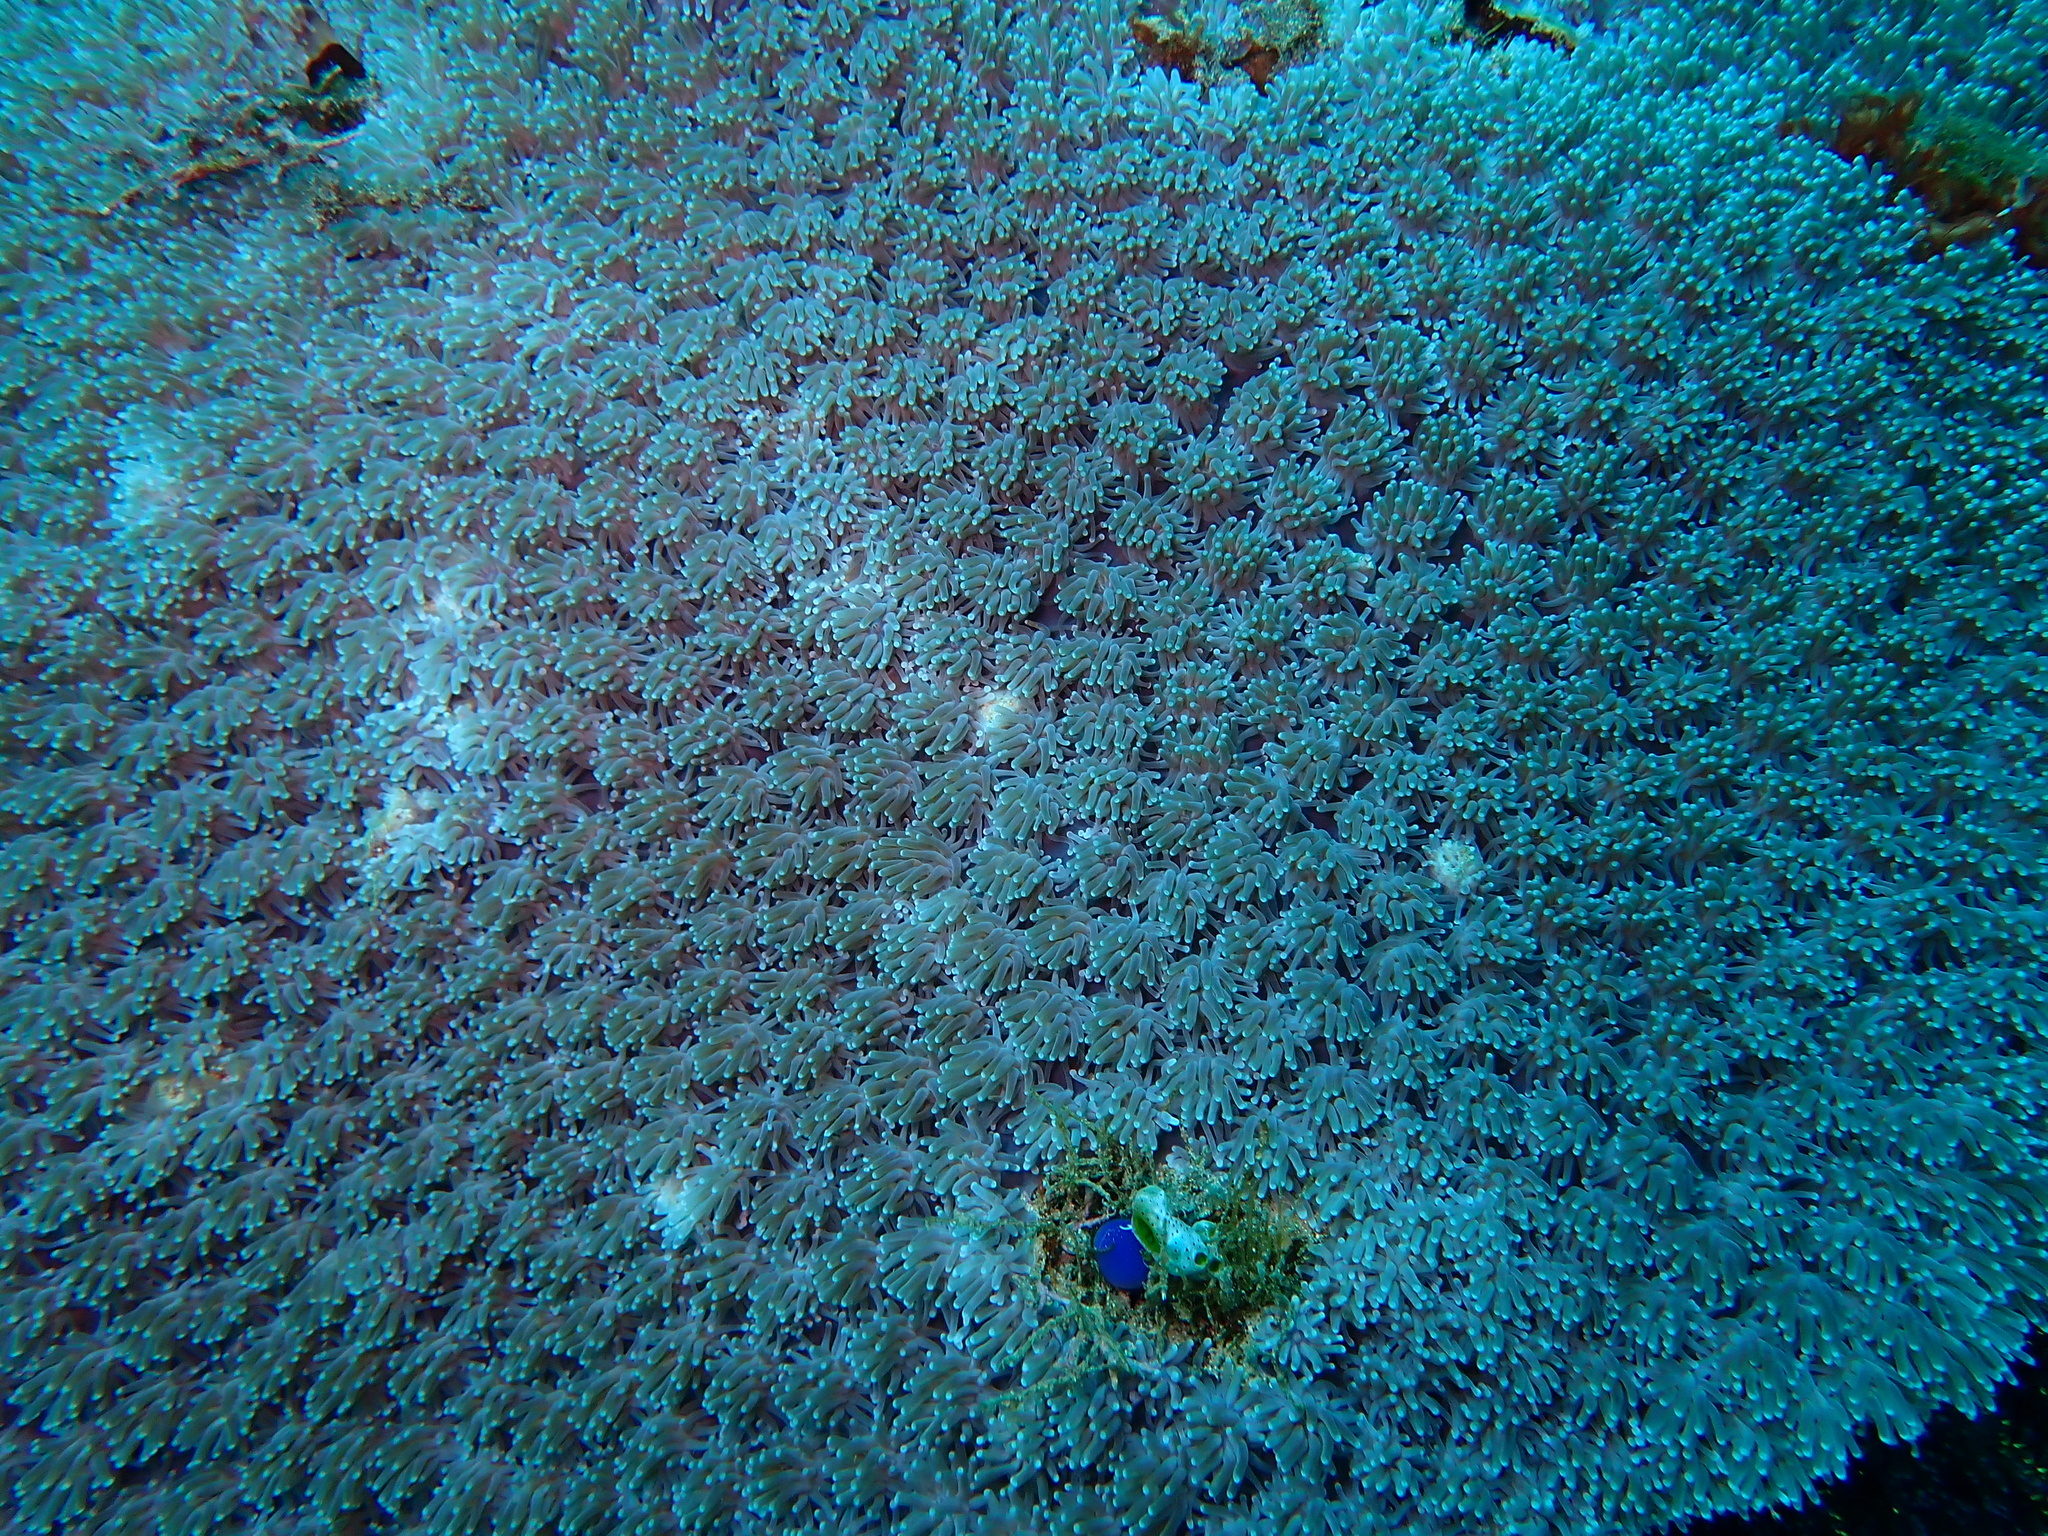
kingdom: Animalia
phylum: Cnidaria
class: Anthozoa
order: Scleractinia
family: Euphylliidae
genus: Galaxea
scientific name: Galaxea fascicularis
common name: Octopus coral
